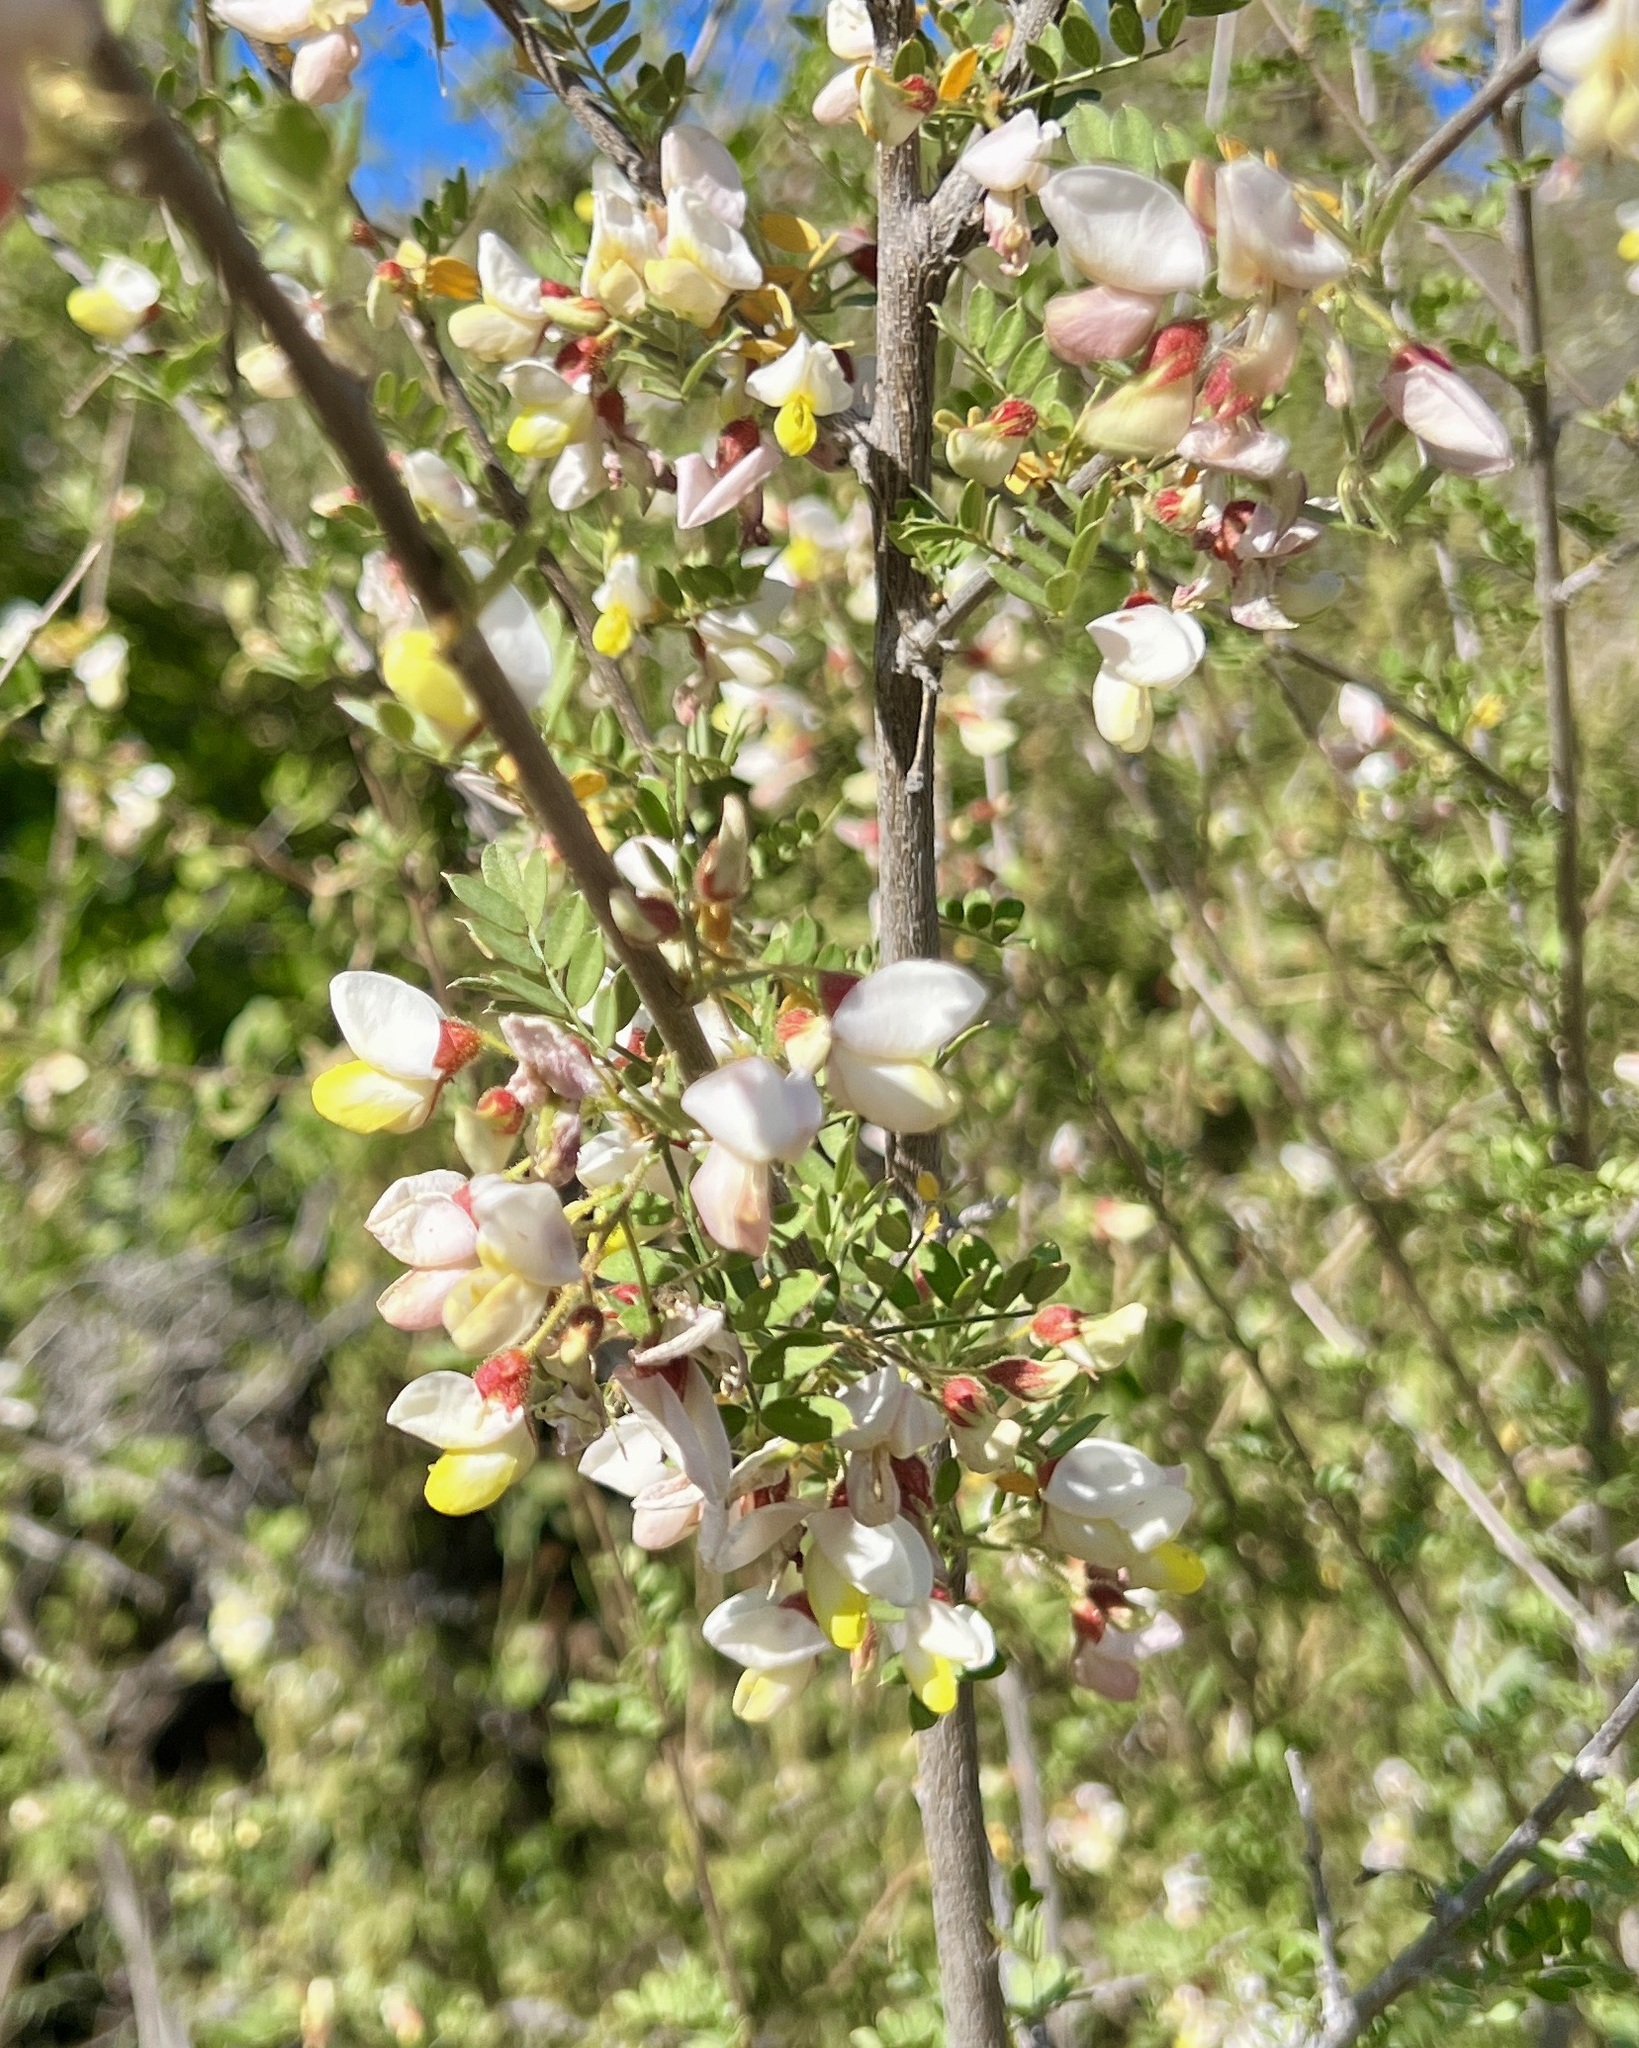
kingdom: Plantae
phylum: Tracheophyta
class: Magnoliopsida
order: Fabales
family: Fabaceae
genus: Coursetia
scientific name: Coursetia glandulosa
